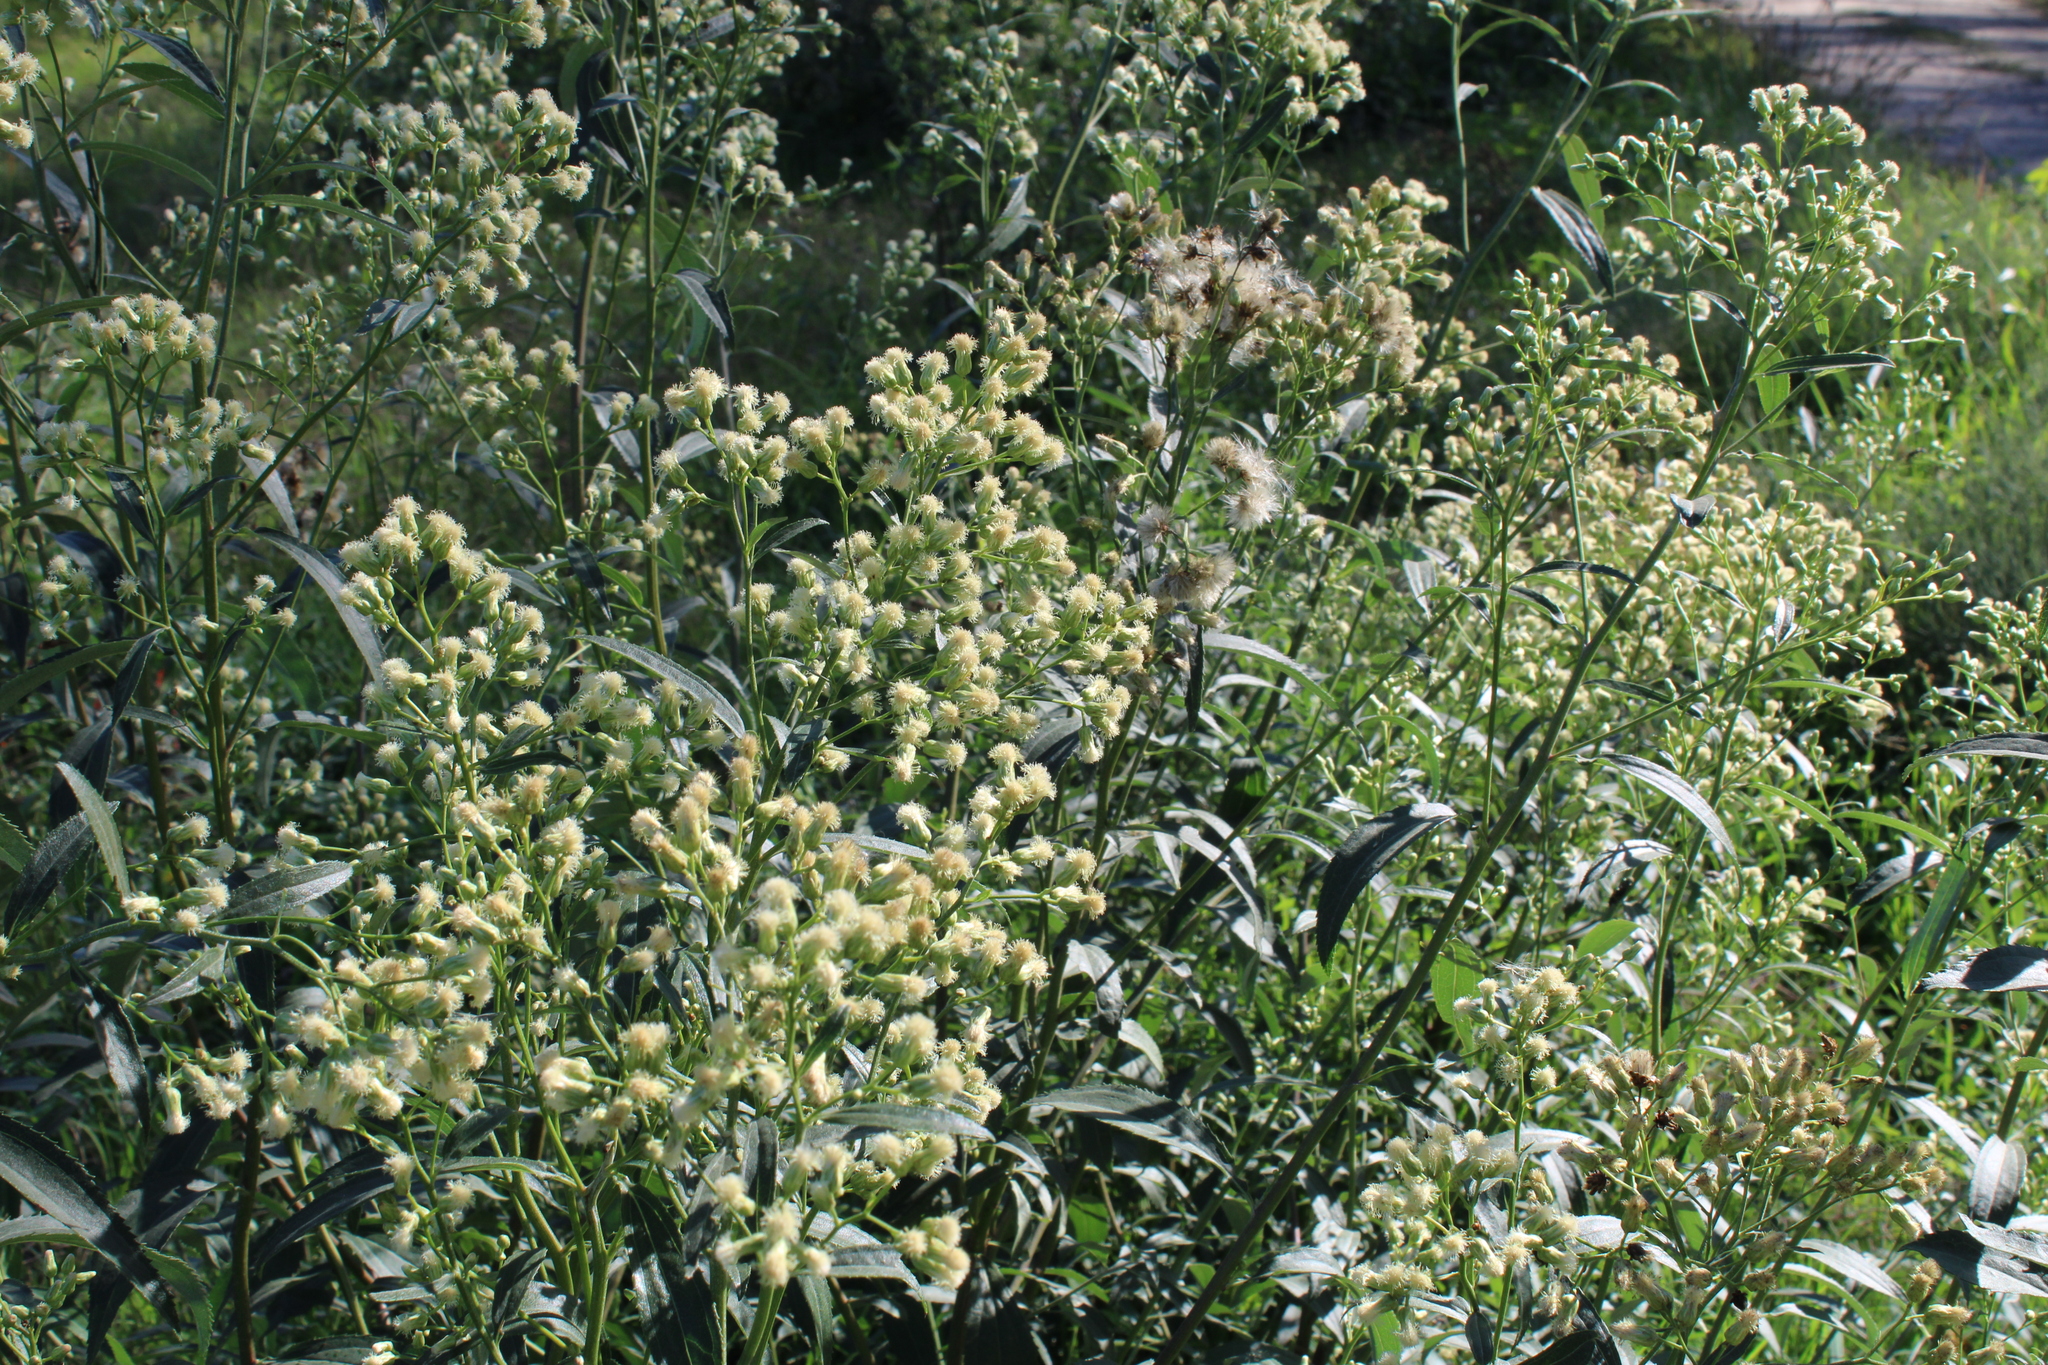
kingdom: Plantae
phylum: Tracheophyta
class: Magnoliopsida
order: Asterales
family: Asteraceae
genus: Baccharis
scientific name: Baccharis punctulata
